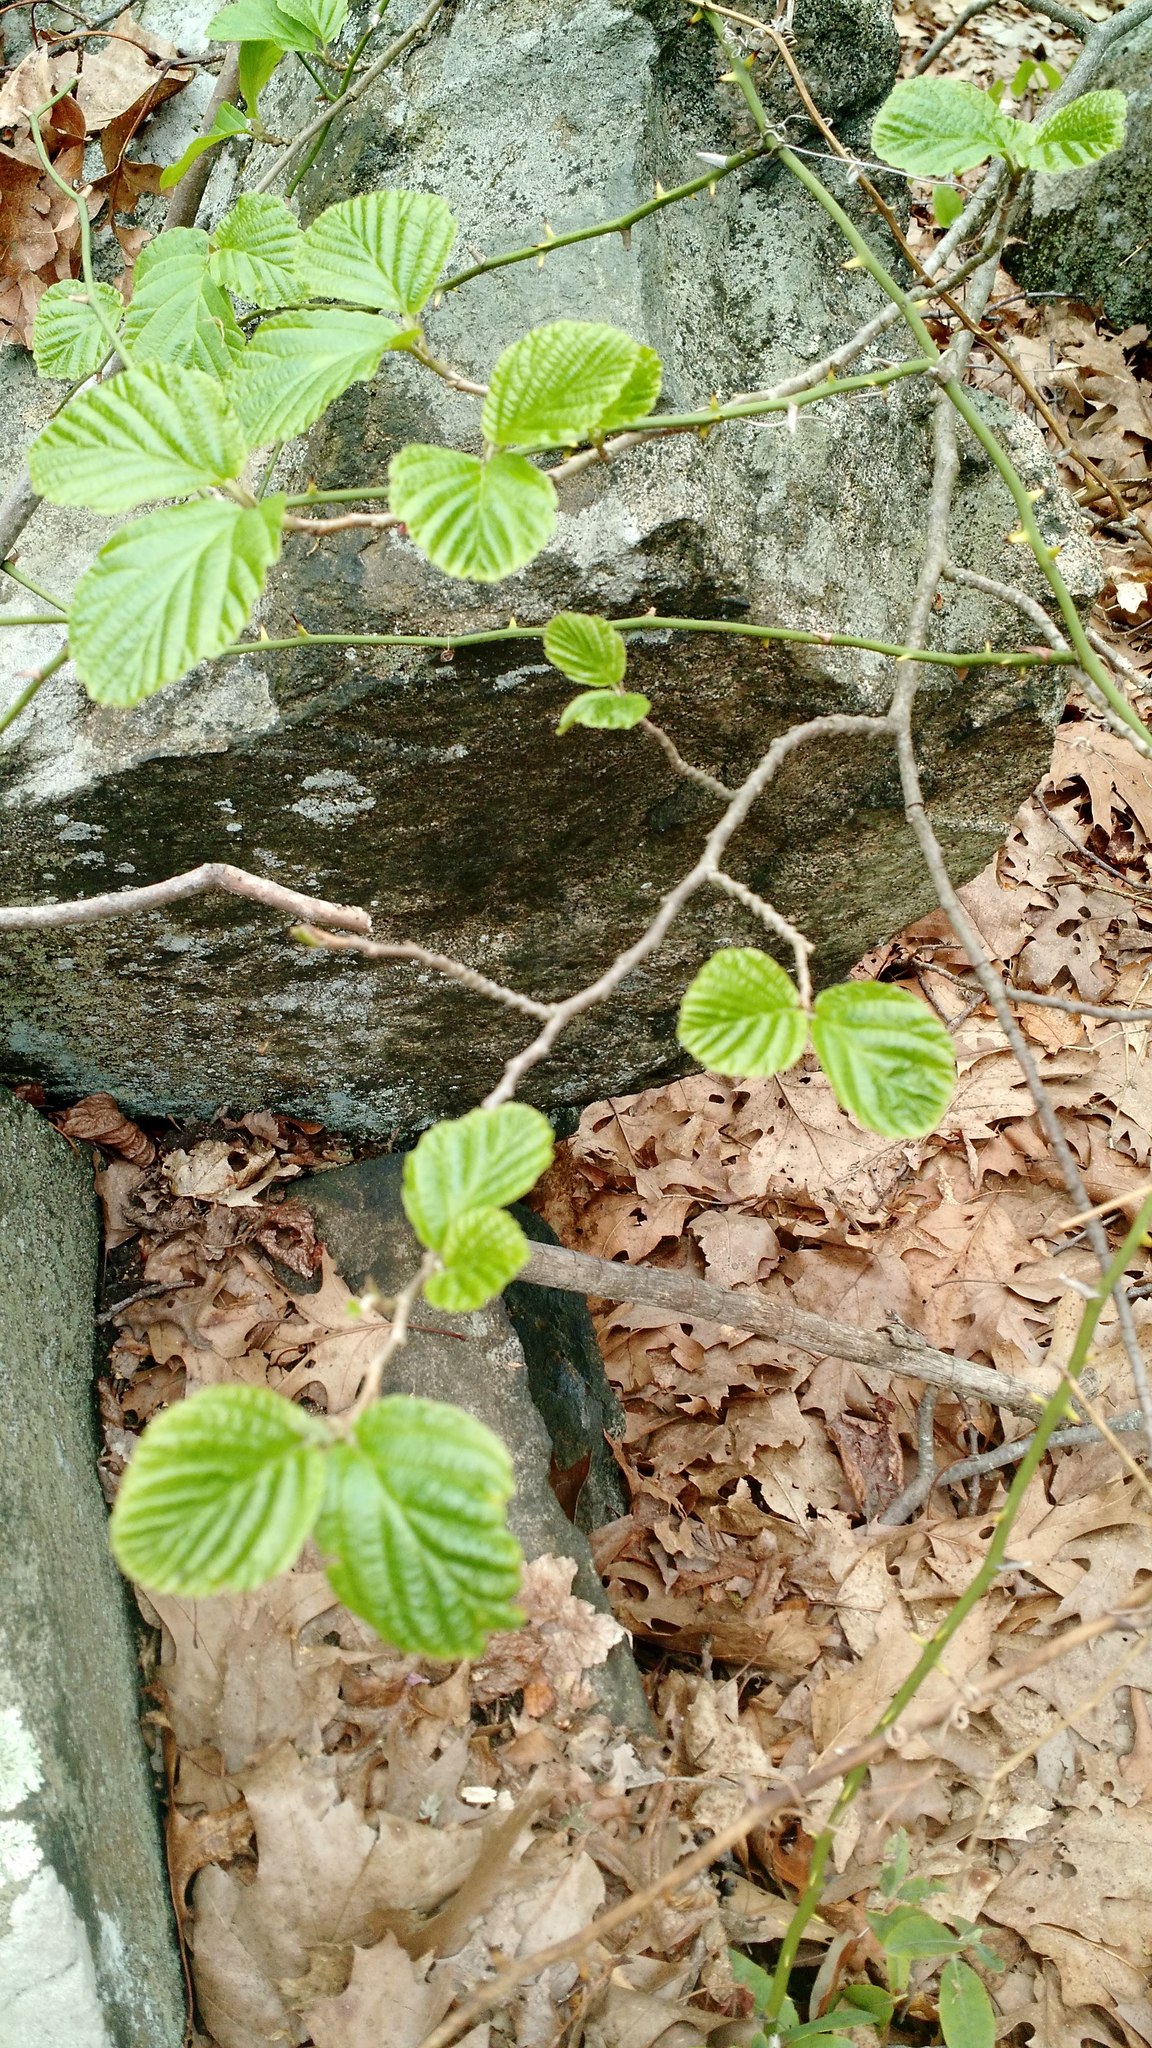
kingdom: Plantae
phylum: Tracheophyta
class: Magnoliopsida
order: Saxifragales
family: Hamamelidaceae
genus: Hamamelis
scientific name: Hamamelis virginiana
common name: Witch-hazel
